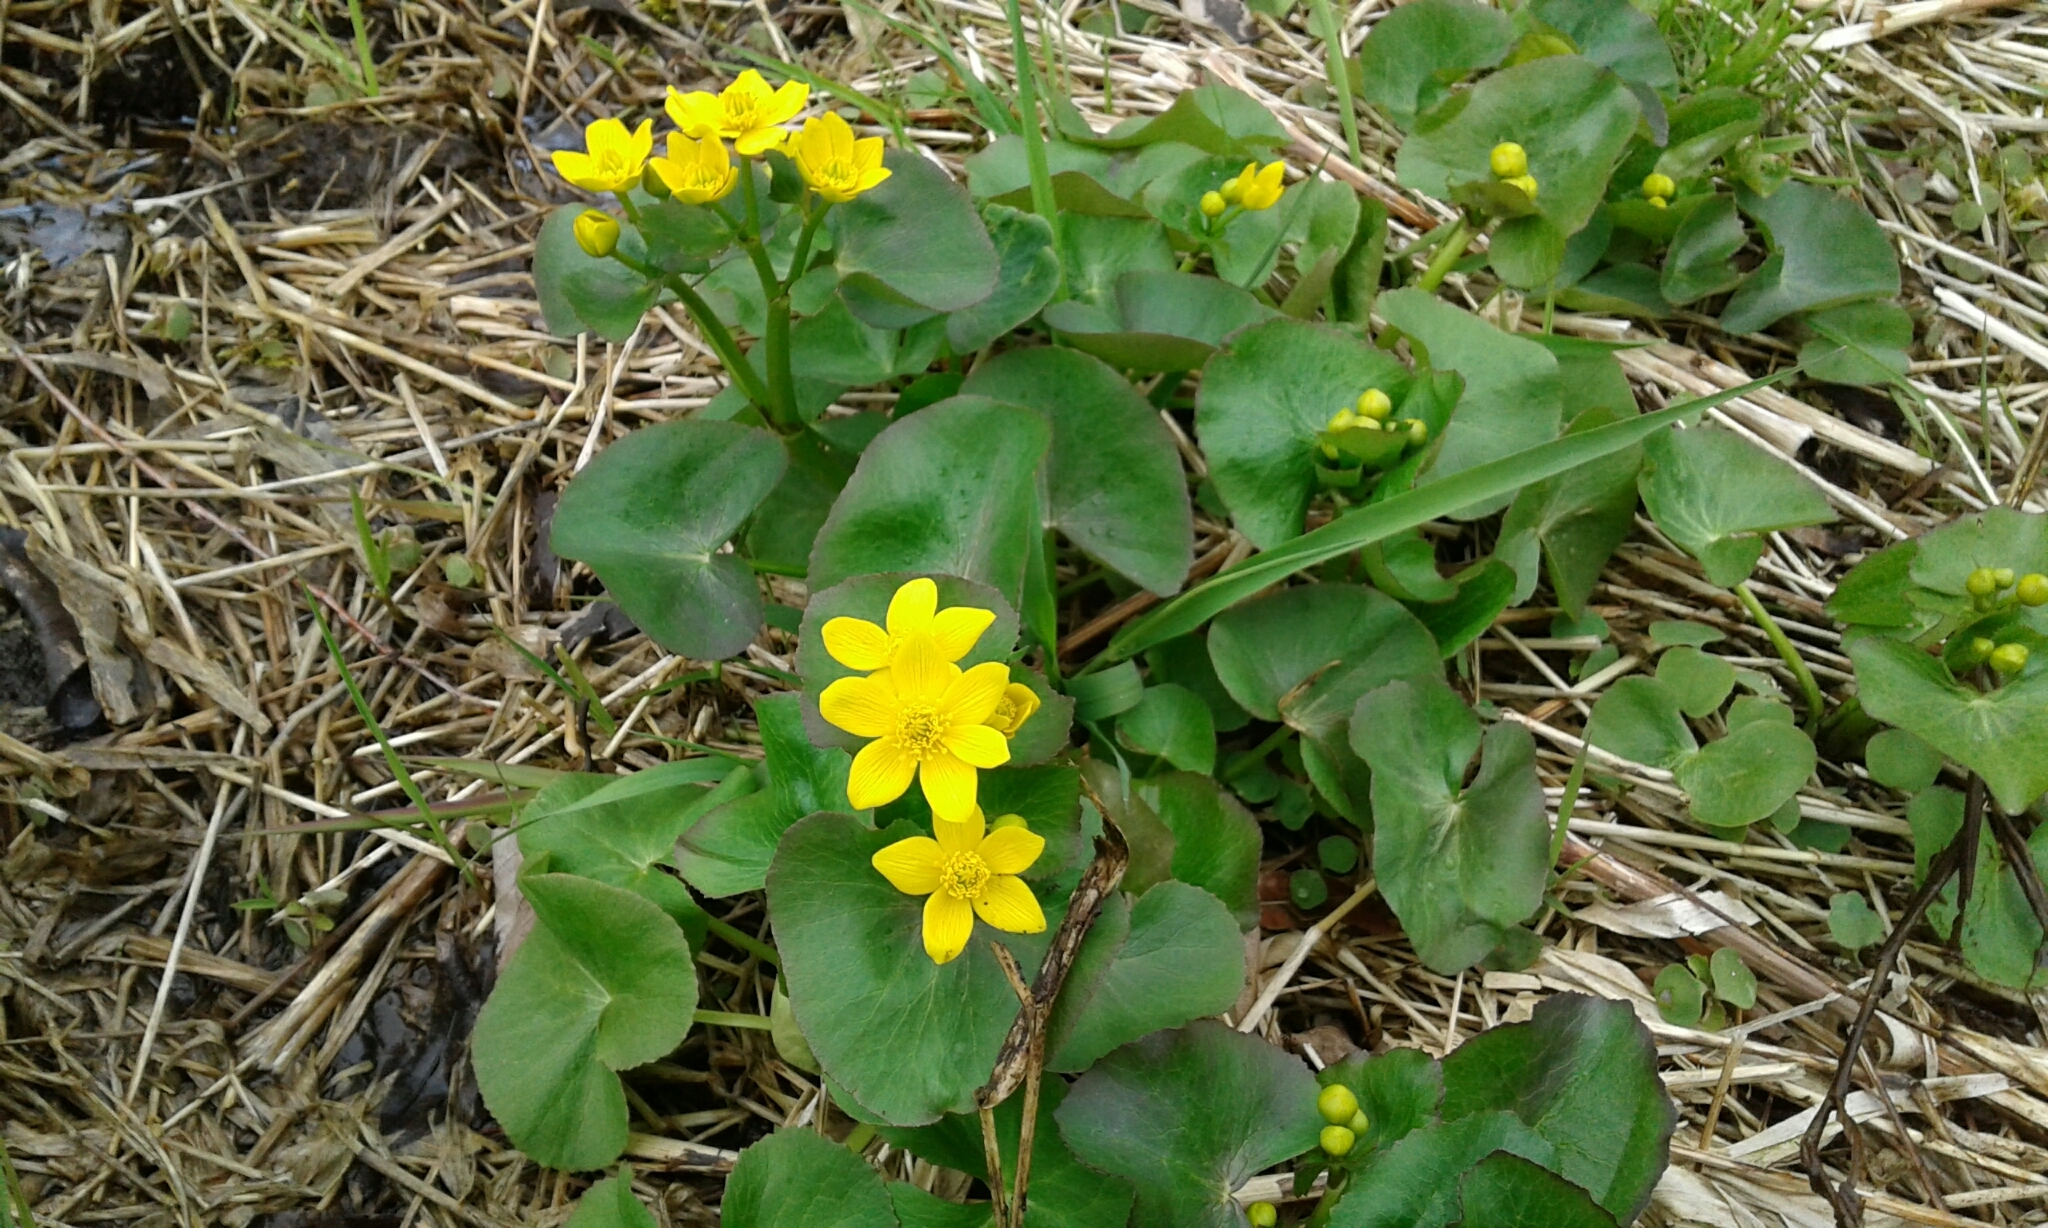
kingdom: Plantae
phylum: Tracheophyta
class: Magnoliopsida
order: Ranunculales
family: Ranunculaceae
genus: Caltha
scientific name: Caltha palustris
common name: Marsh marigold
